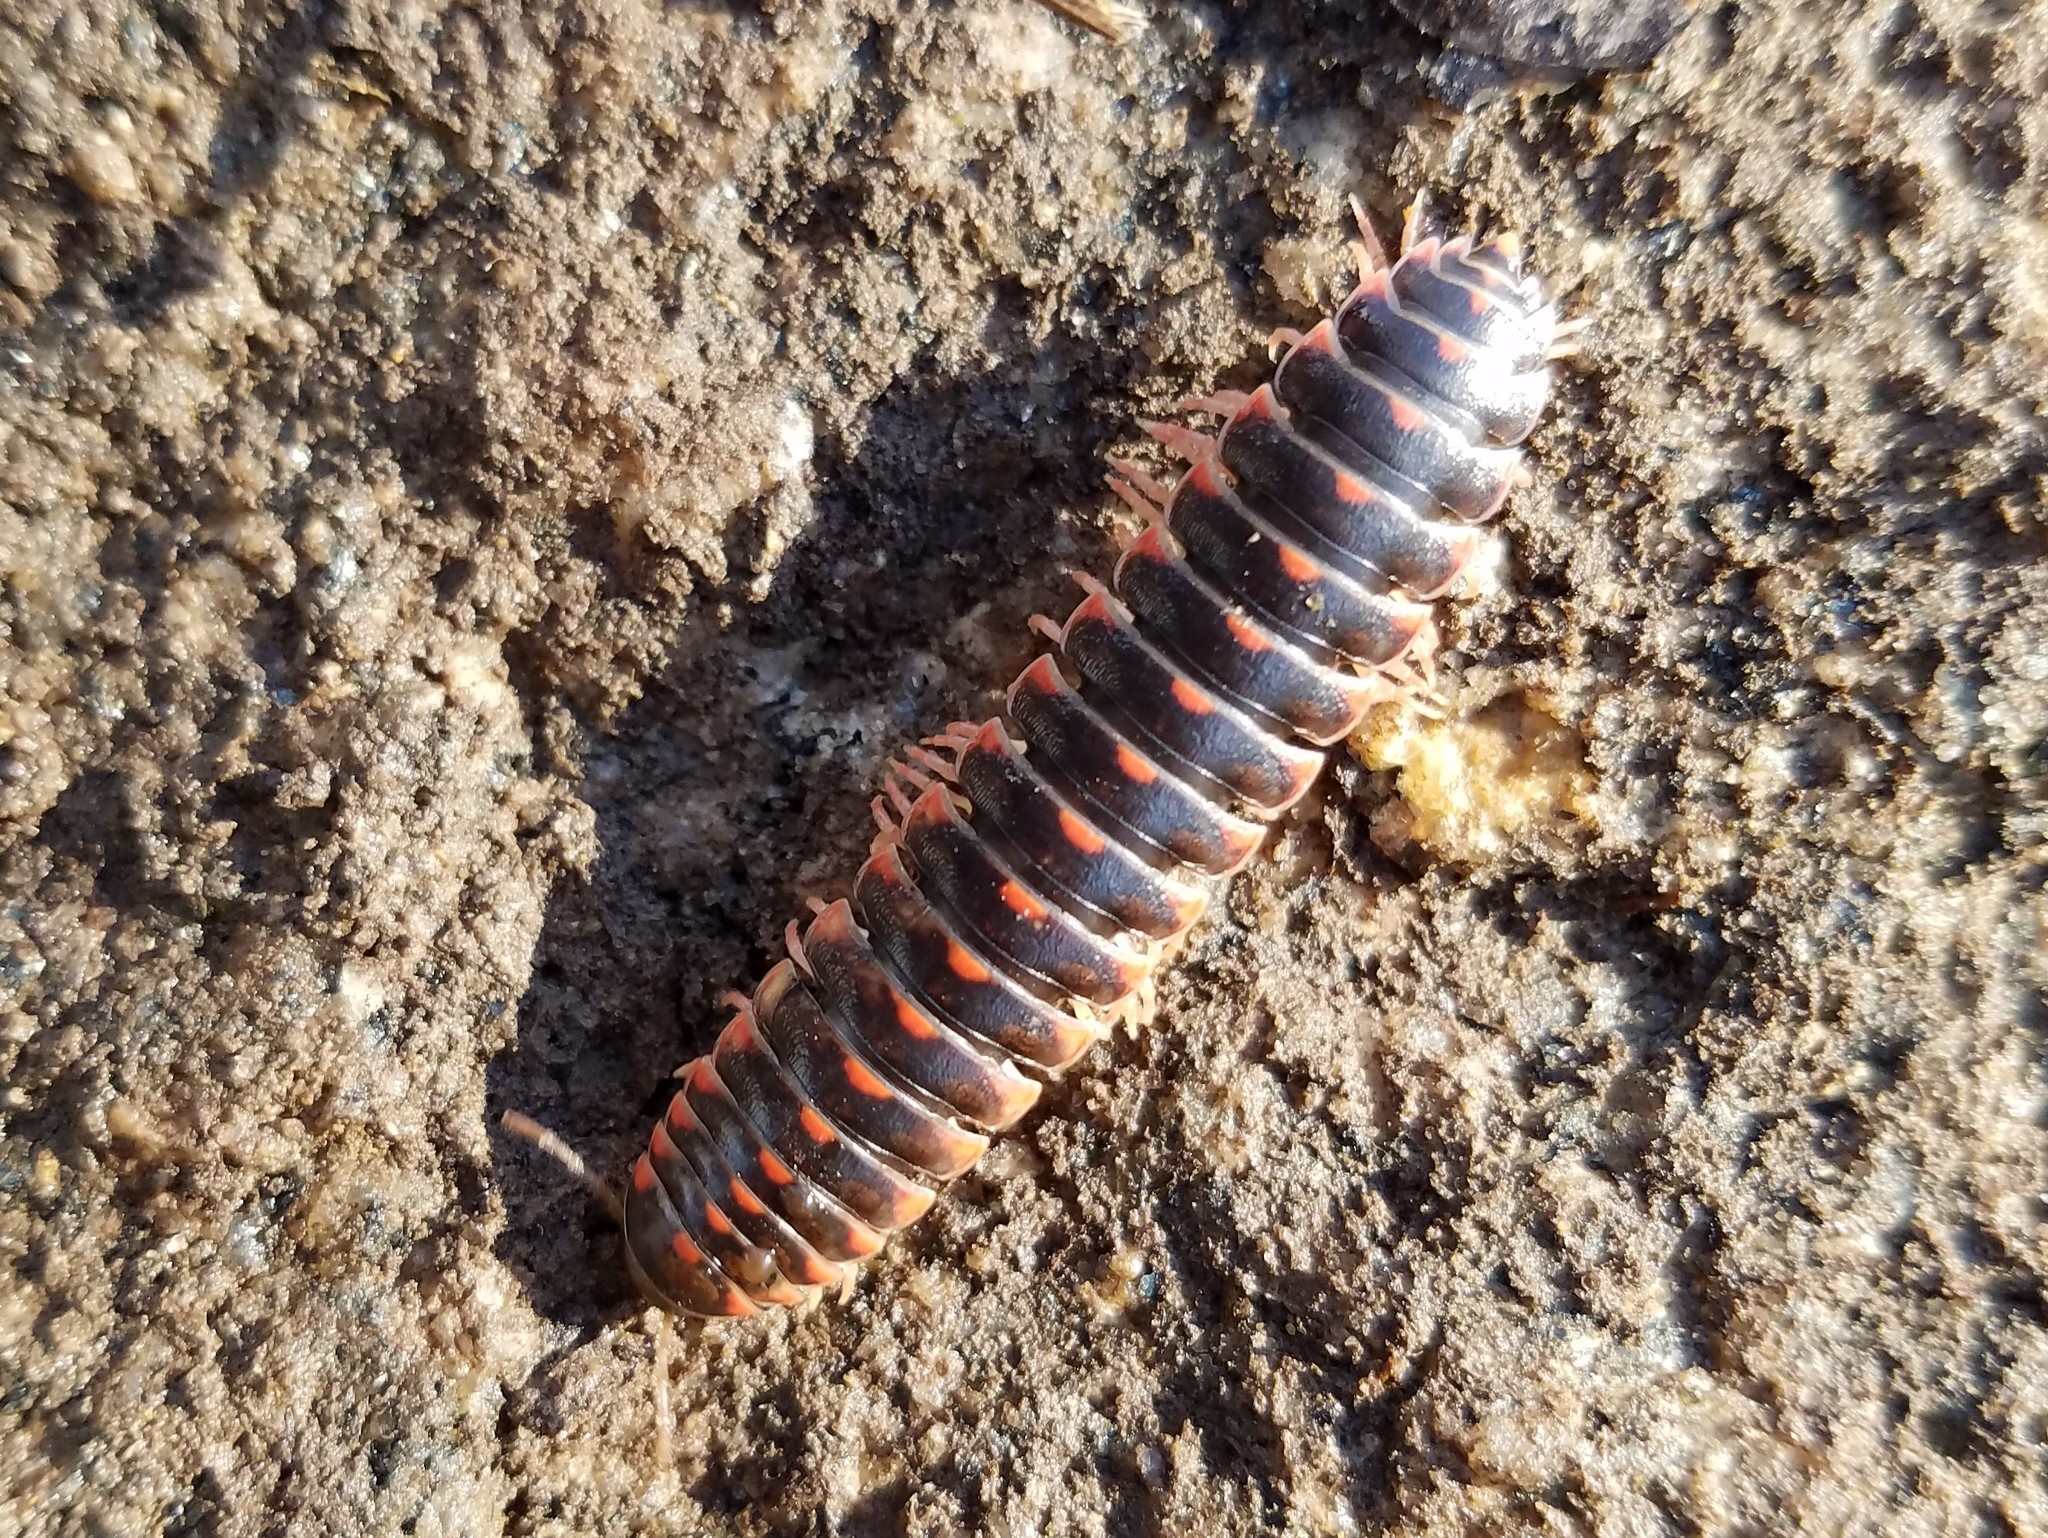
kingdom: Animalia
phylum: Arthropoda
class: Diplopoda
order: Polydesmida
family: Xystodesmidae
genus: Cherokia
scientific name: Cherokia georgiana
